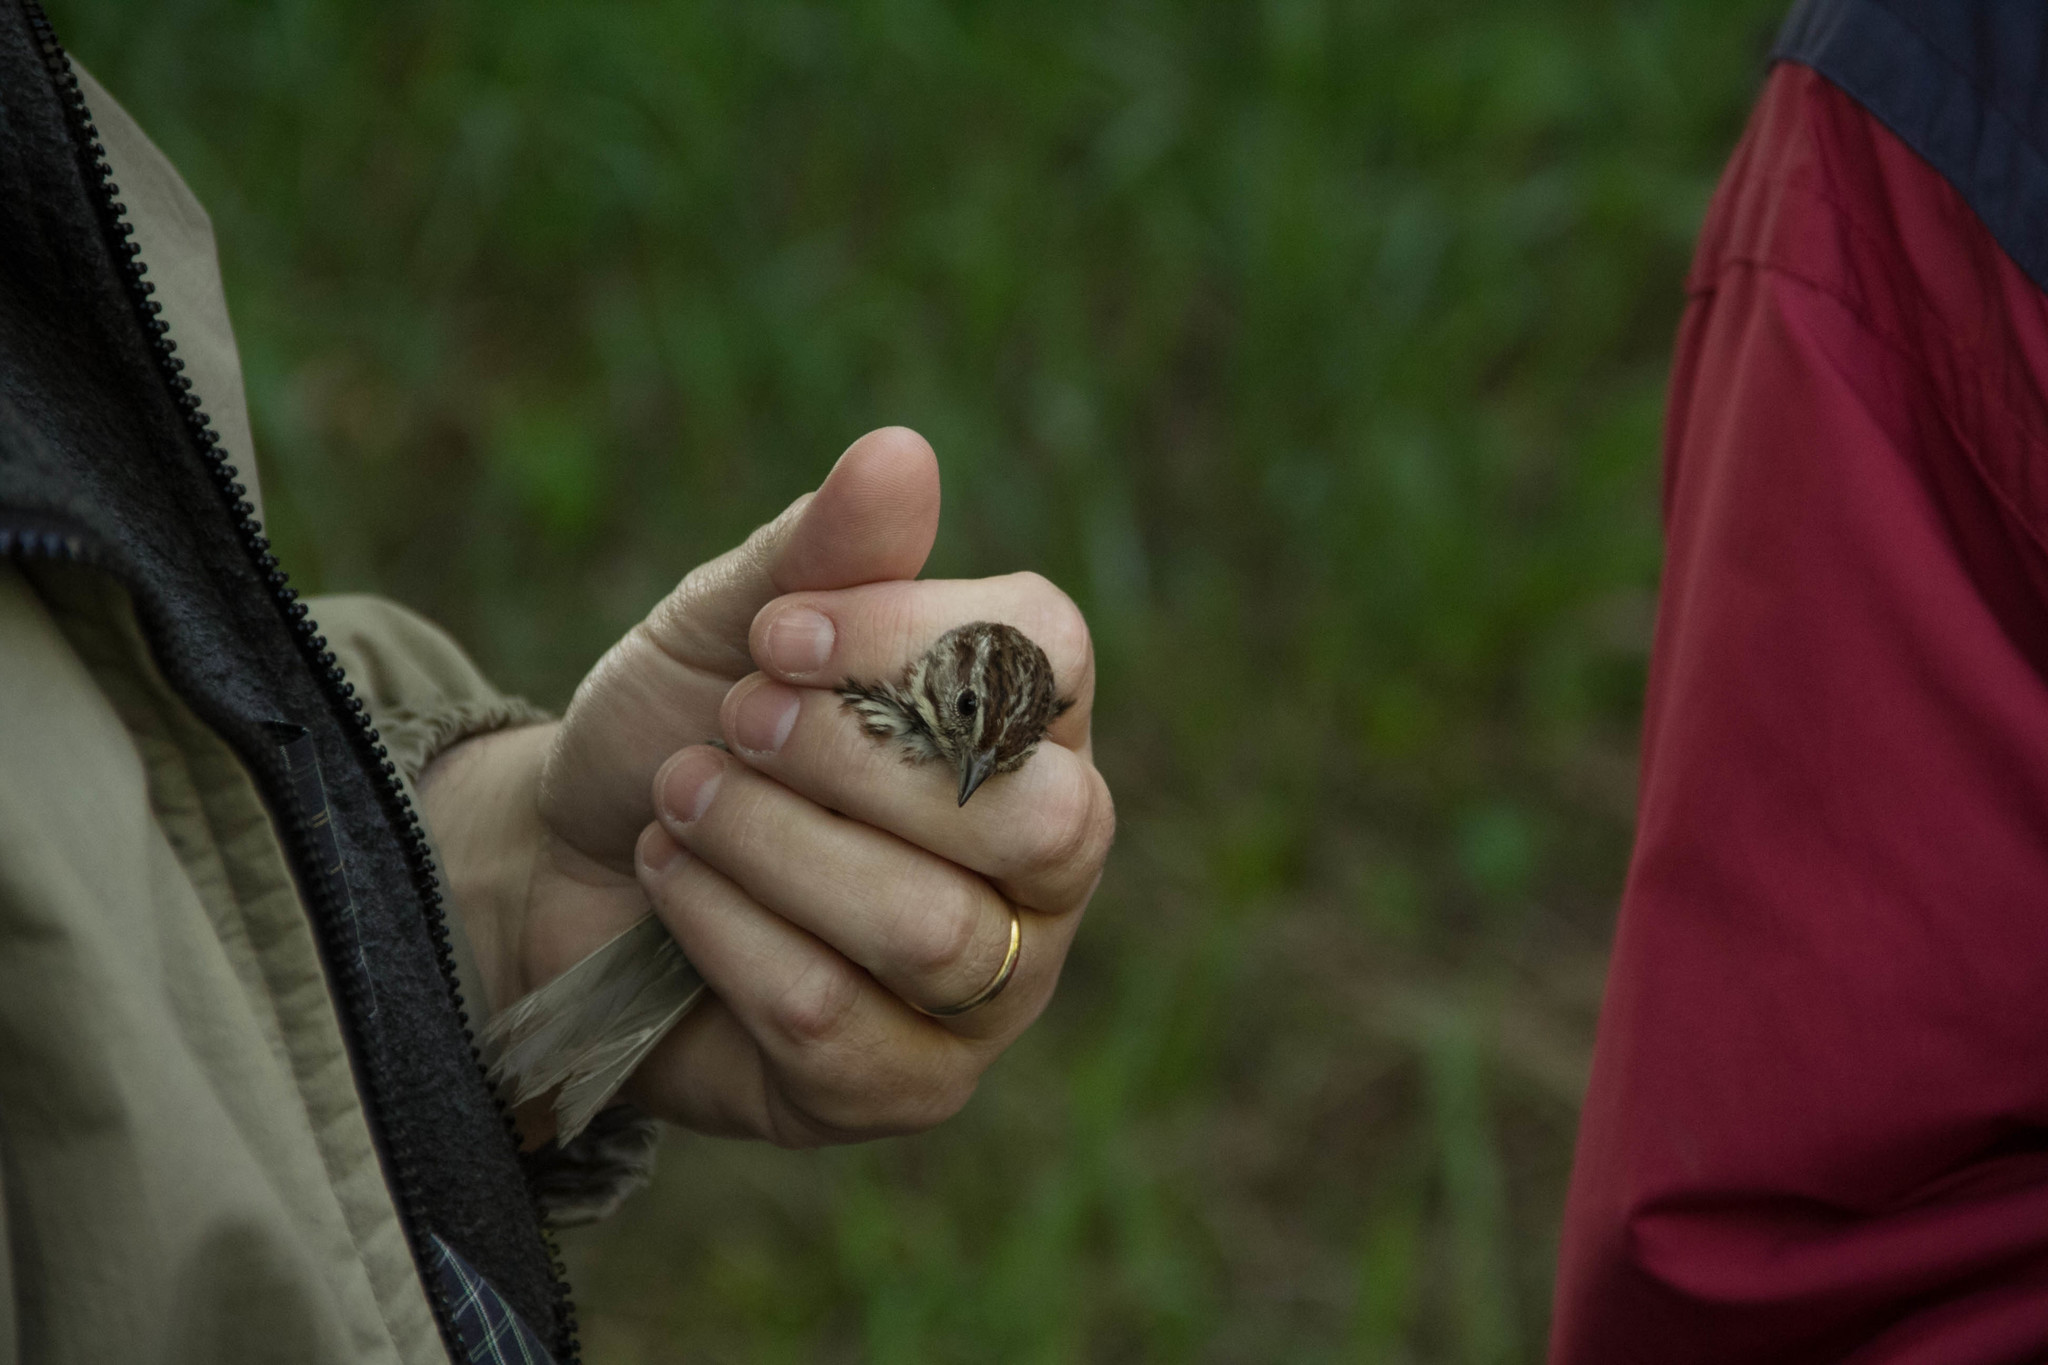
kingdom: Animalia
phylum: Chordata
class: Aves
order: Passeriformes
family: Passerellidae
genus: Melospiza
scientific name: Melospiza melodia
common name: Song sparrow
